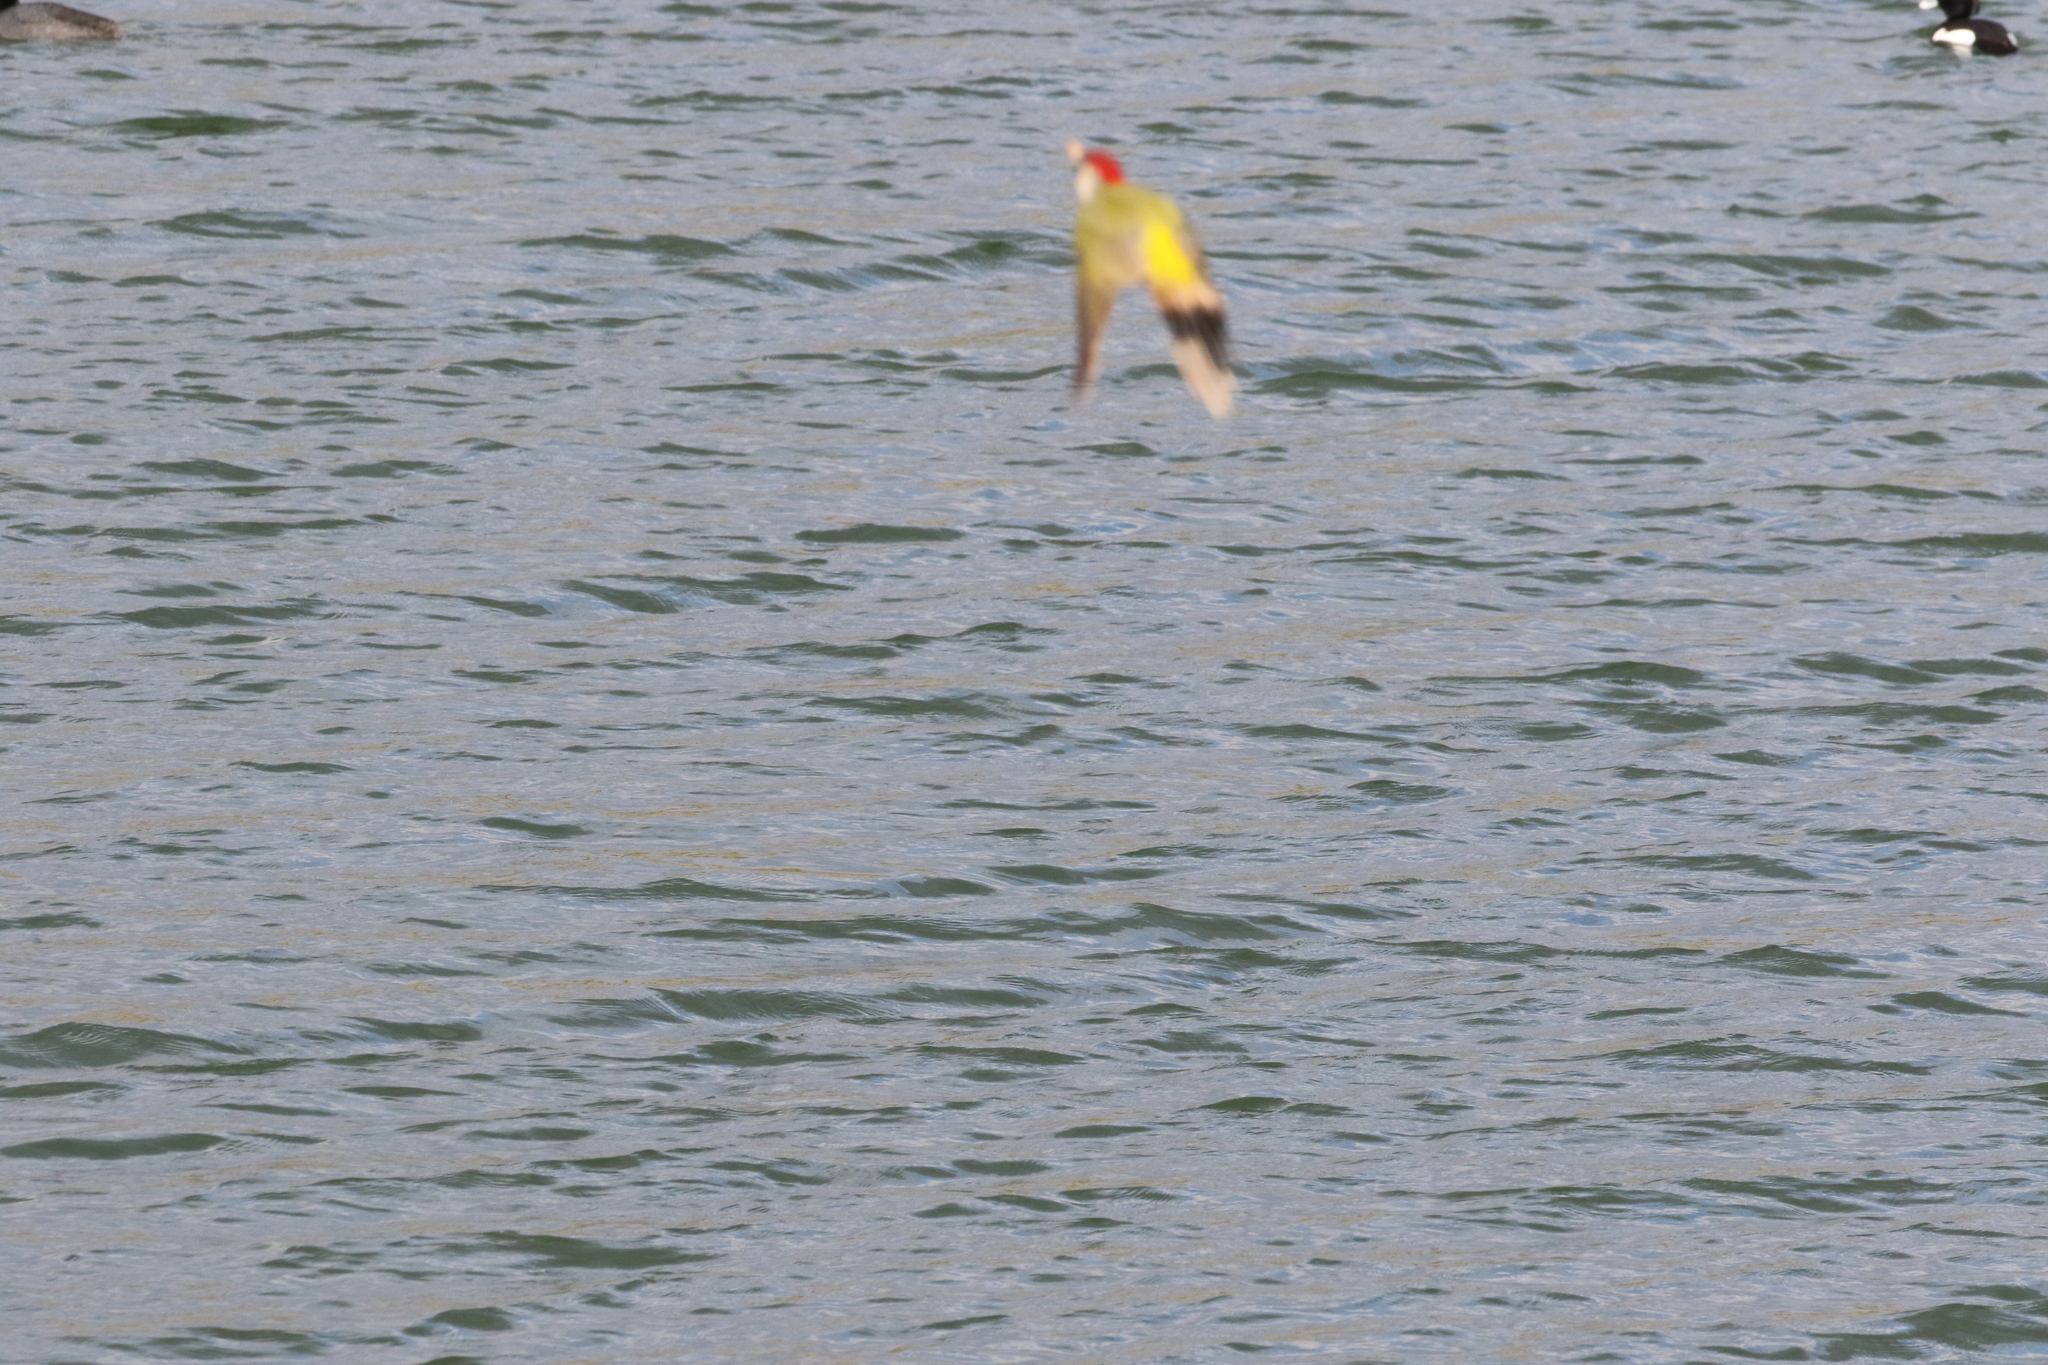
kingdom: Animalia
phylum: Chordata
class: Aves
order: Piciformes
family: Picidae
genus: Picus
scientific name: Picus viridis
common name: European green woodpecker
